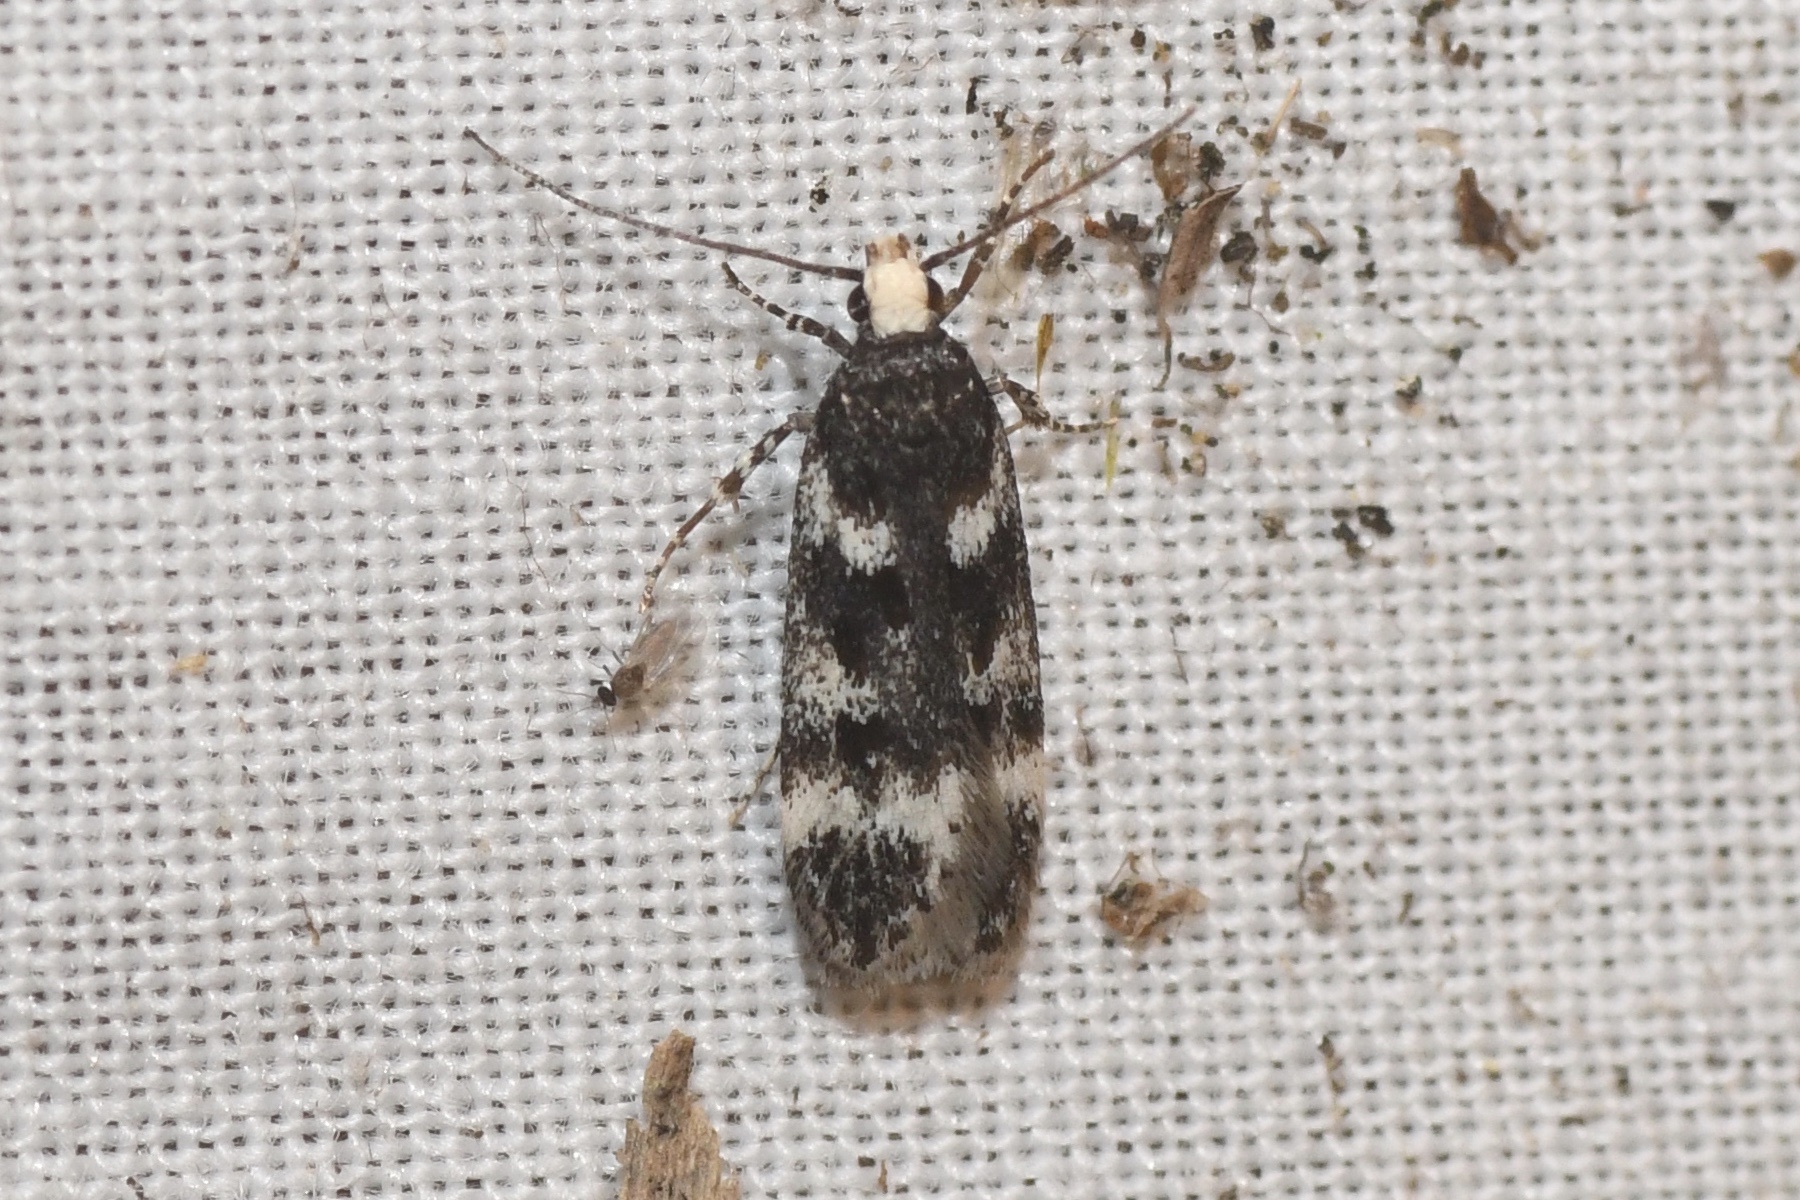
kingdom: Animalia
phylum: Arthropoda
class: Insecta
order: Lepidoptera
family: Gelechiidae
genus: Chionodes
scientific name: Chionodes sattleri
